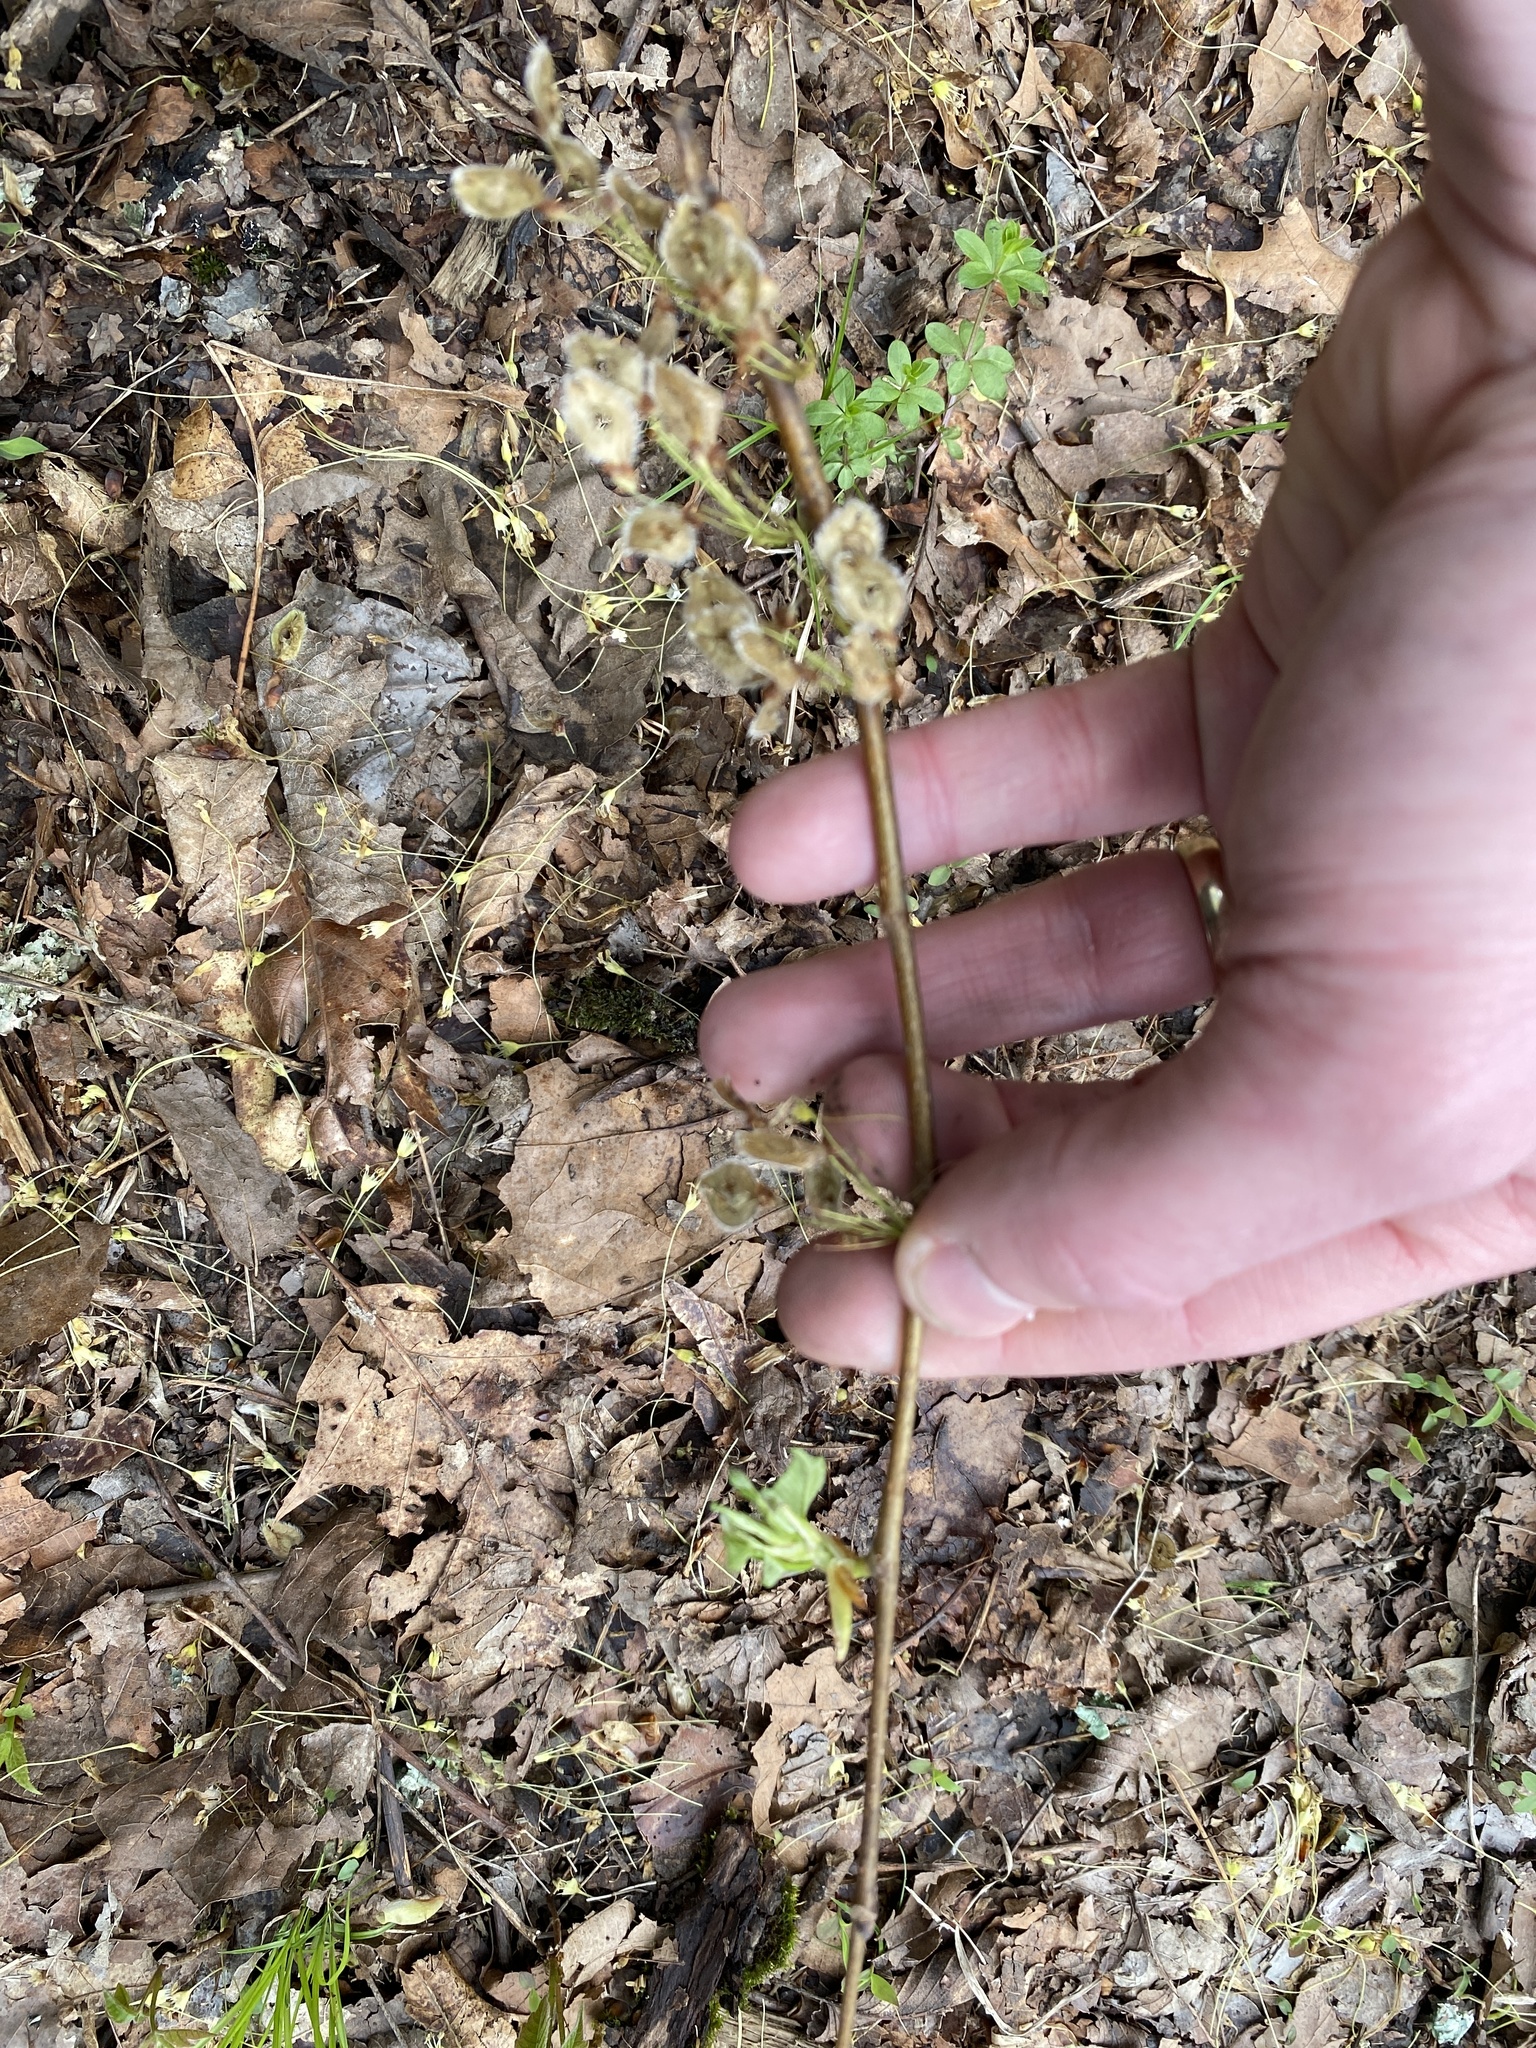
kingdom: Plantae
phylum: Tracheophyta
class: Magnoliopsida
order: Rosales
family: Ulmaceae
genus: Ulmus
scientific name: Ulmus americana
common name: American elm
